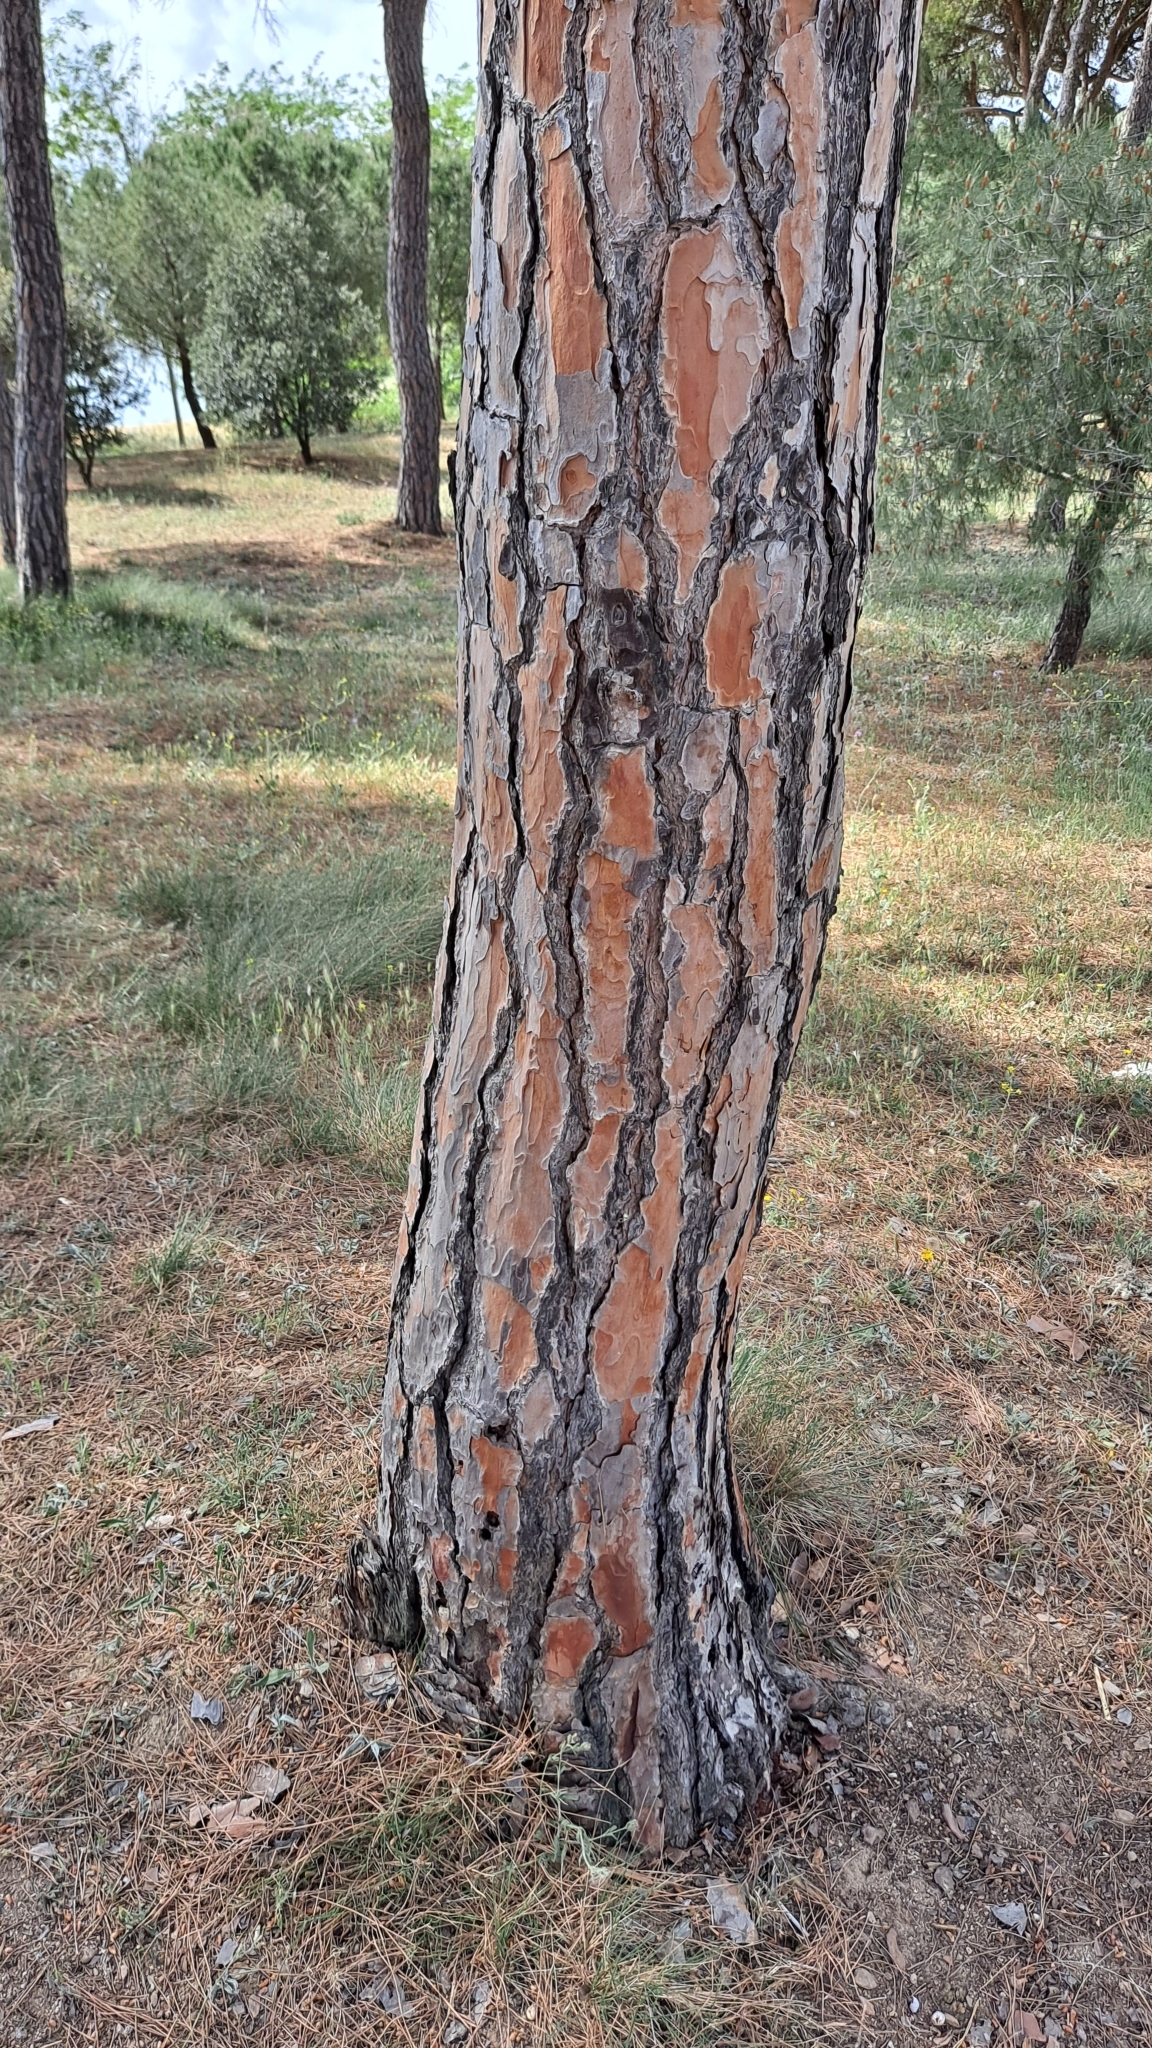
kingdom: Plantae
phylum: Tracheophyta
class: Pinopsida
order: Pinales
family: Pinaceae
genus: Pinus
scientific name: Pinus pinea
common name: Italian stone pine
